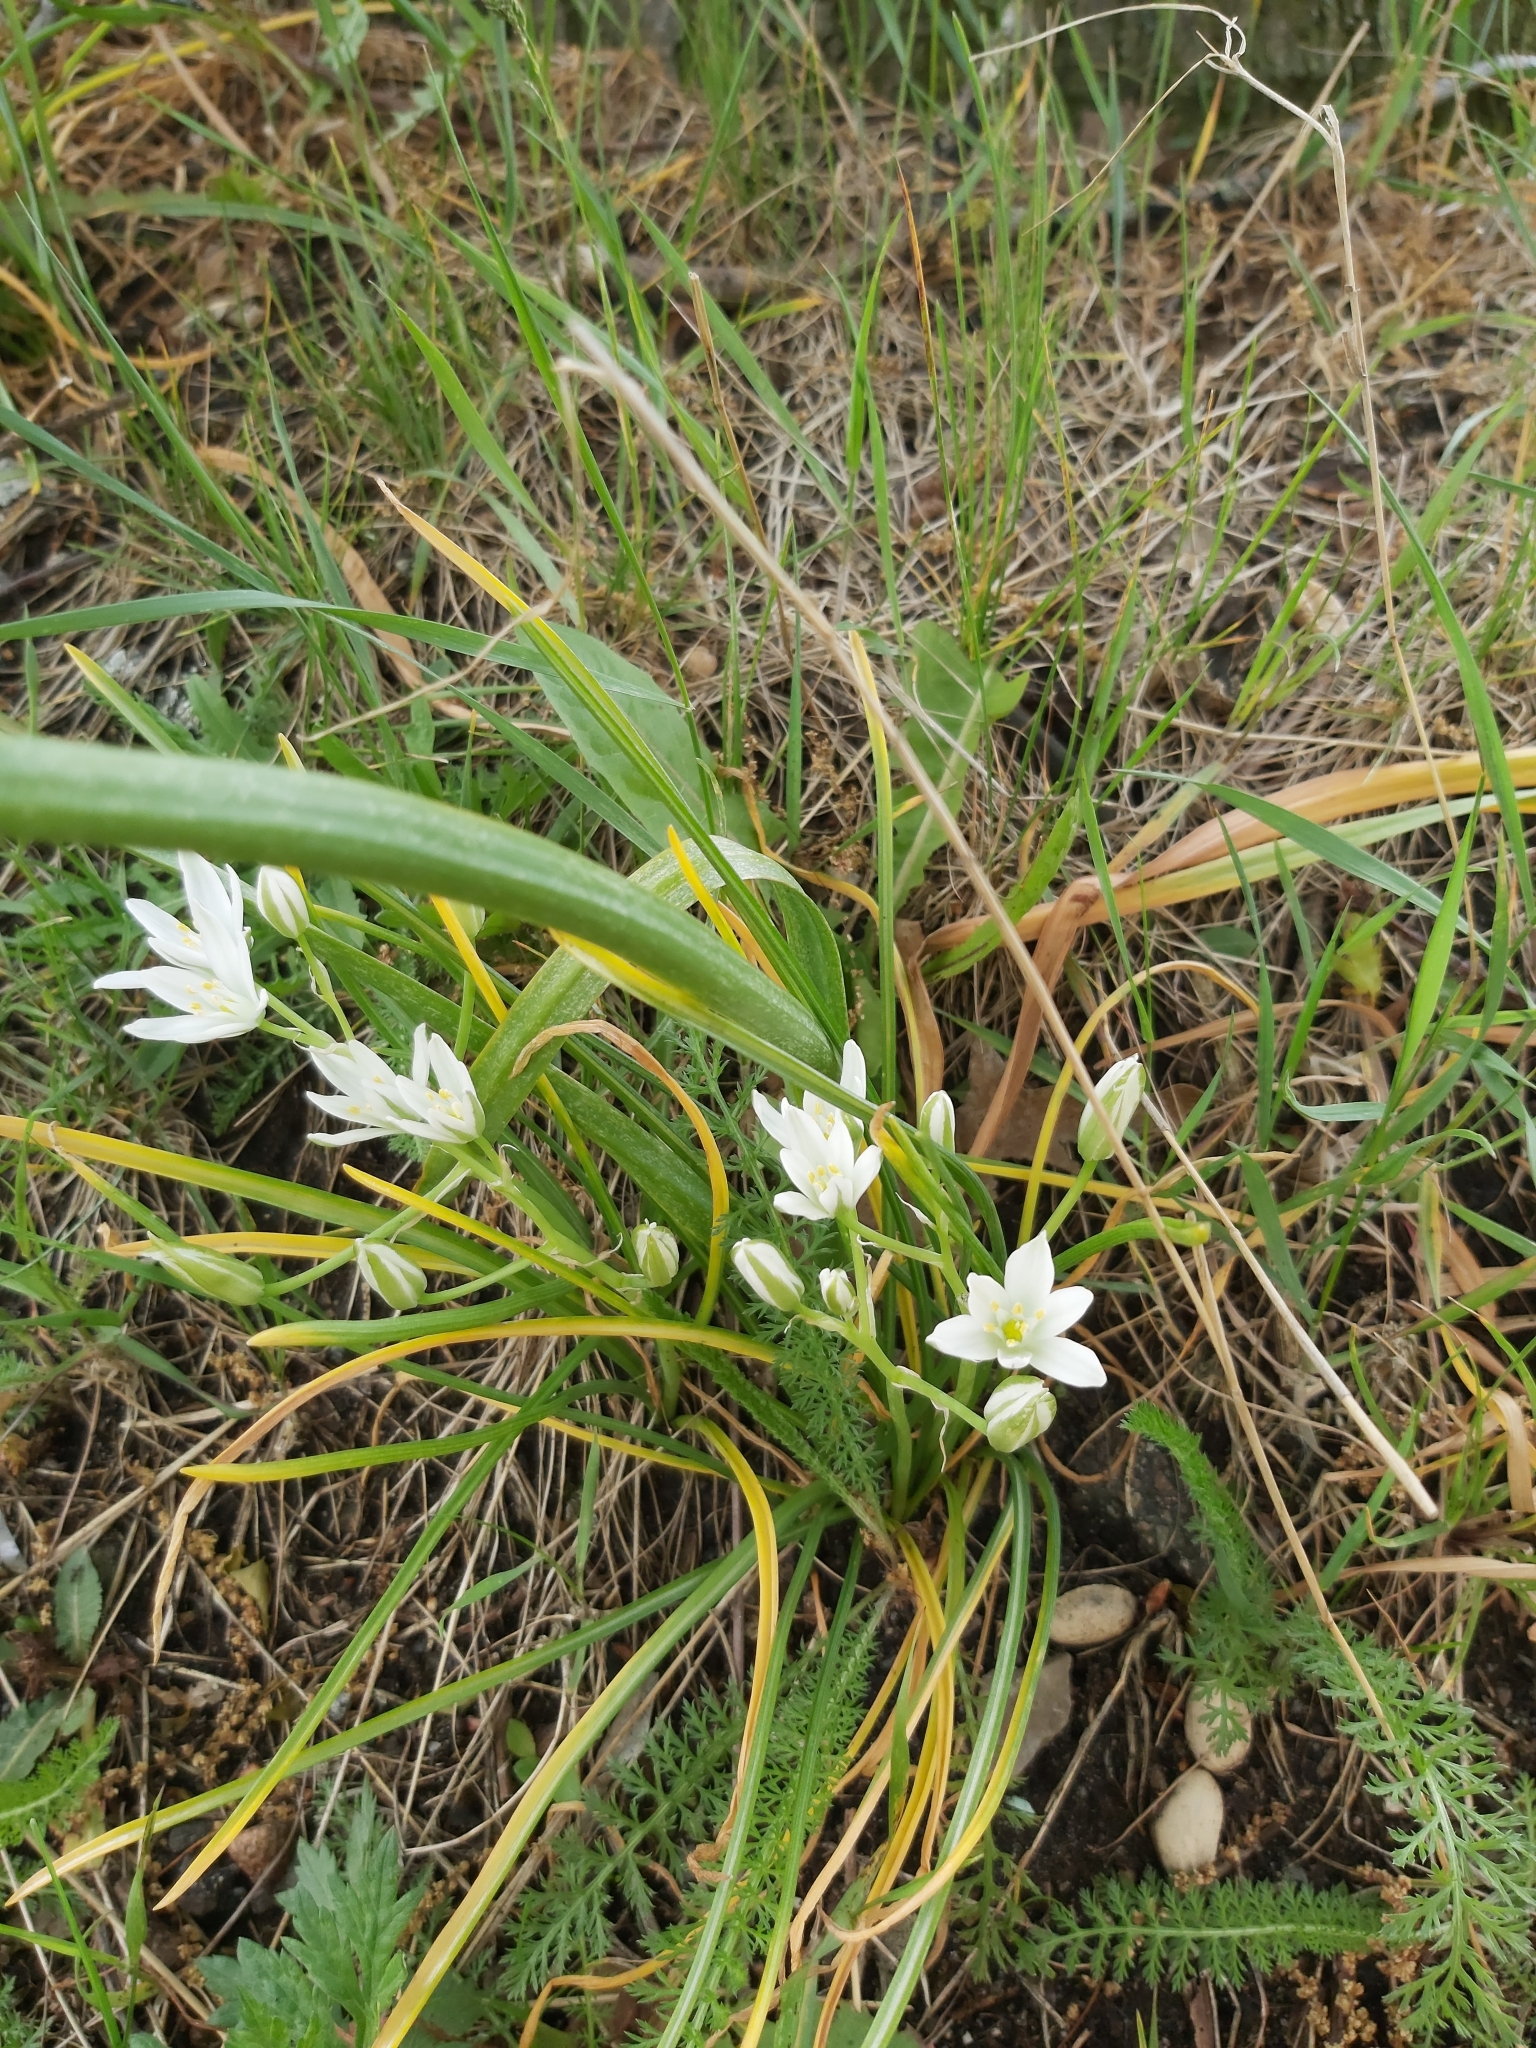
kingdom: Plantae
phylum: Tracheophyta
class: Liliopsida
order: Asparagales
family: Asparagaceae
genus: Ornithogalum
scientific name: Ornithogalum umbellatum
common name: Garden star-of-bethlehem
